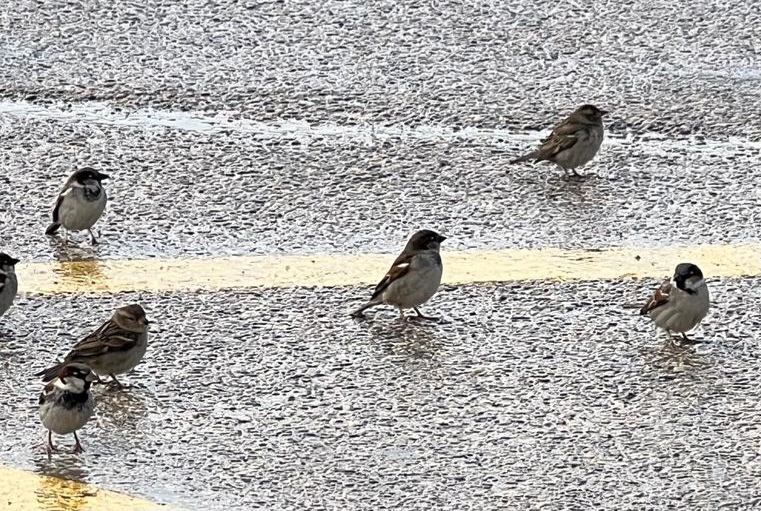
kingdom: Animalia
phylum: Chordata
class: Aves
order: Passeriformes
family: Passeridae
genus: Passer
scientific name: Passer domesticus
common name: House sparrow
